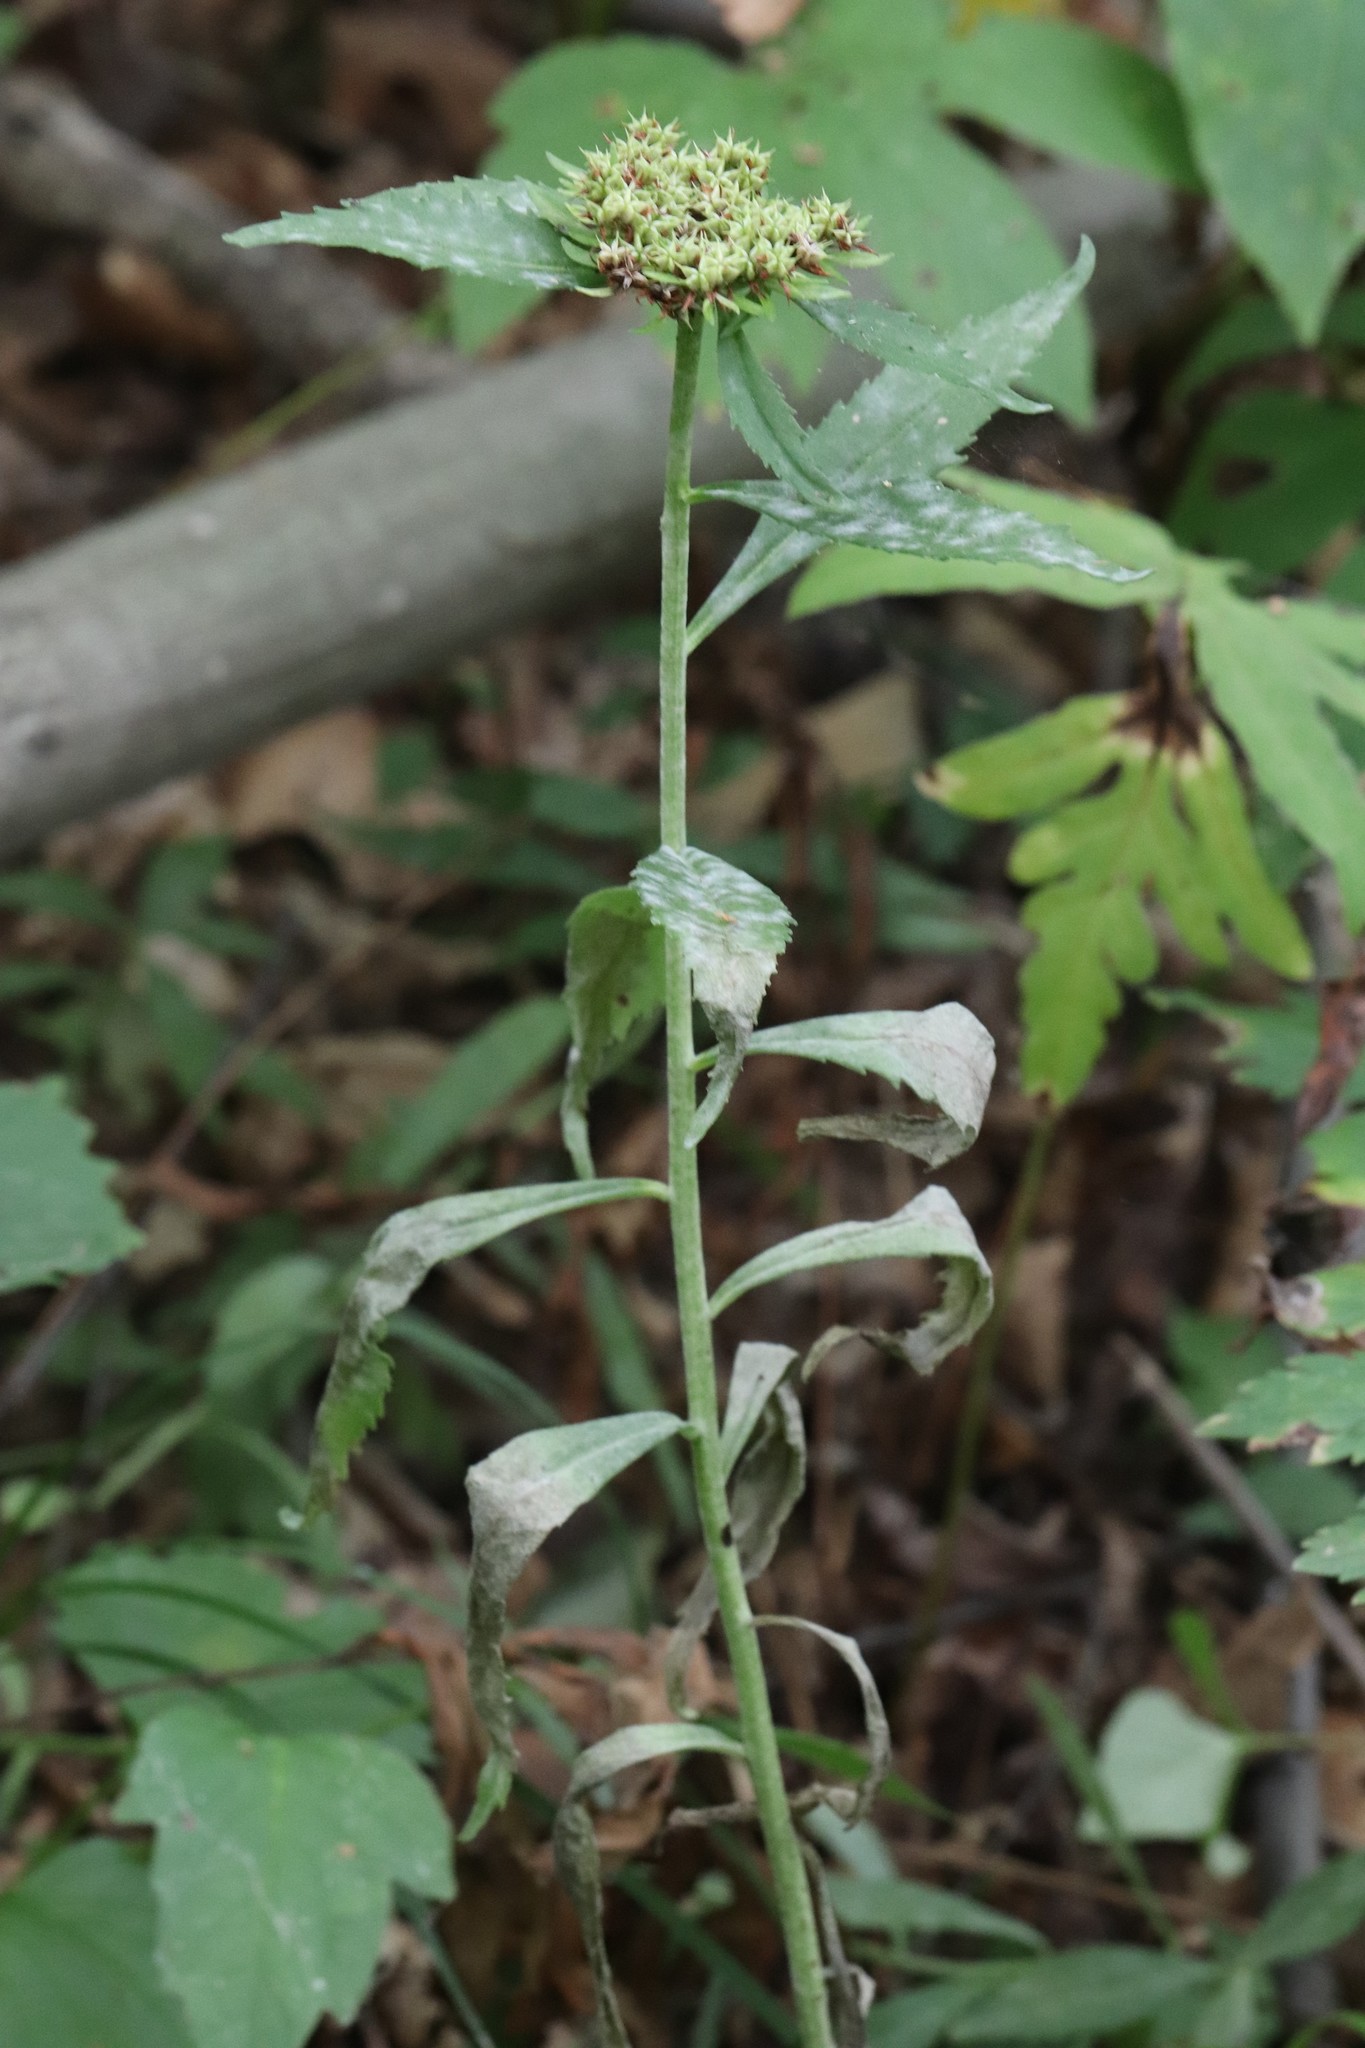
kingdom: Plantae
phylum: Tracheophyta
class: Magnoliopsida
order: Saxifragales
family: Crassulaceae
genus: Phedimus
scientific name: Phedimus aizoon
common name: Orpin aizoon
